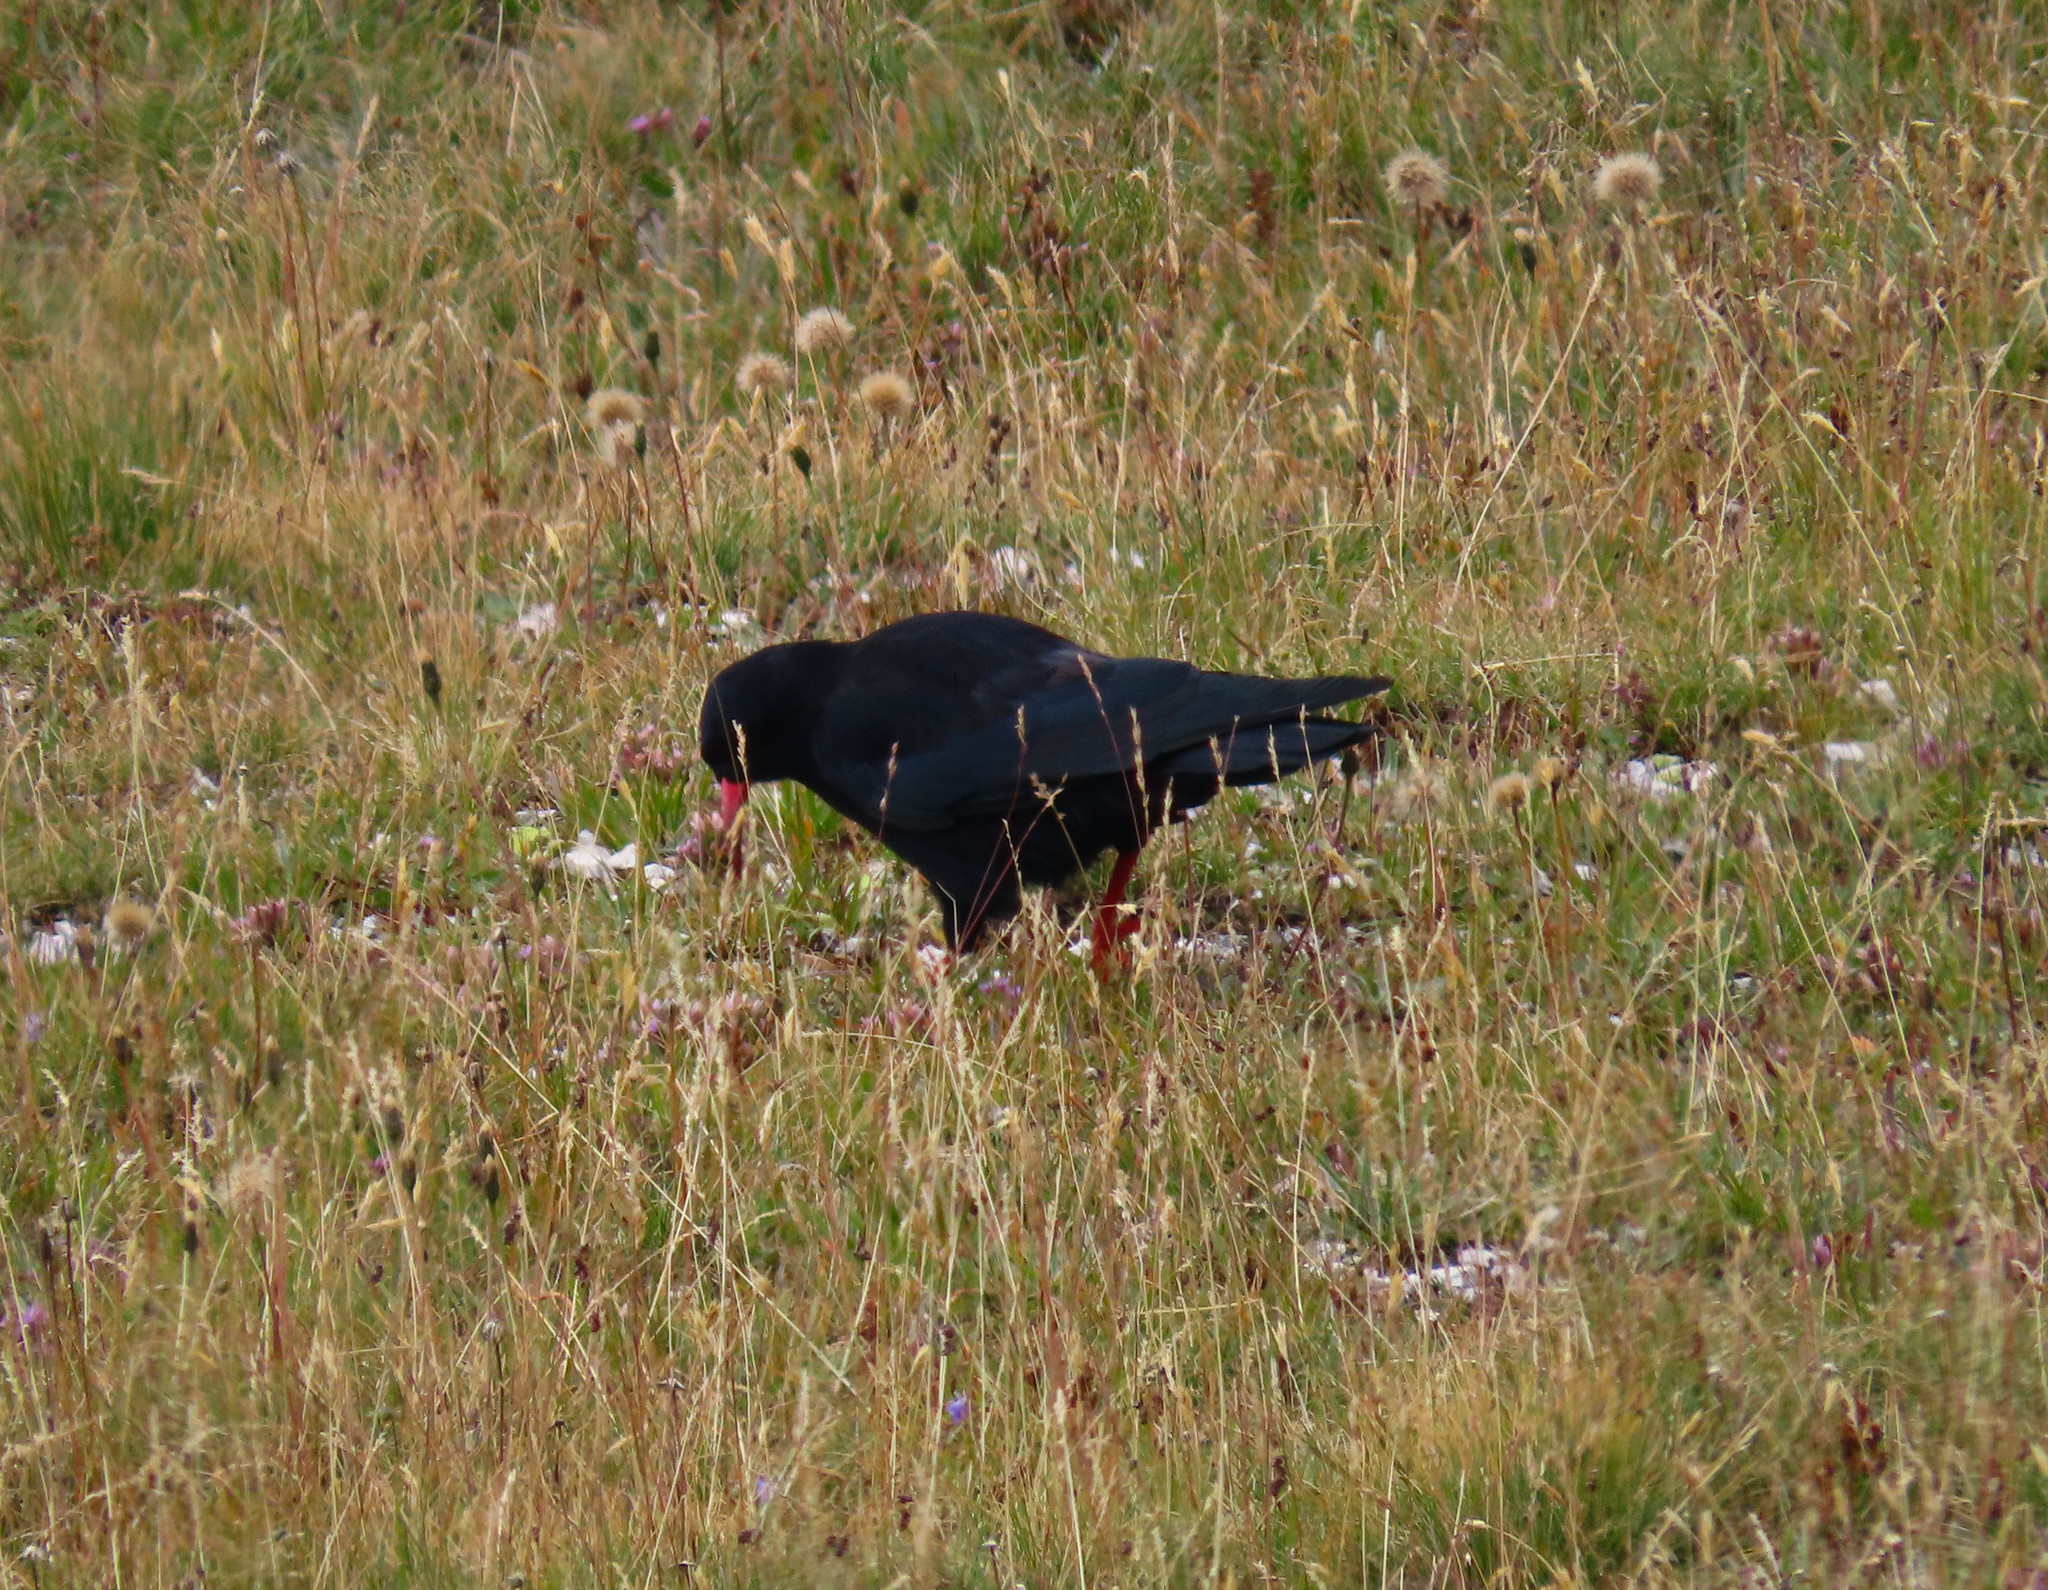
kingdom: Animalia
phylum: Chordata
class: Aves
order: Passeriformes
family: Corvidae
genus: Pyrrhocorax
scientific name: Pyrrhocorax pyrrhocorax
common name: Red-billed chough
